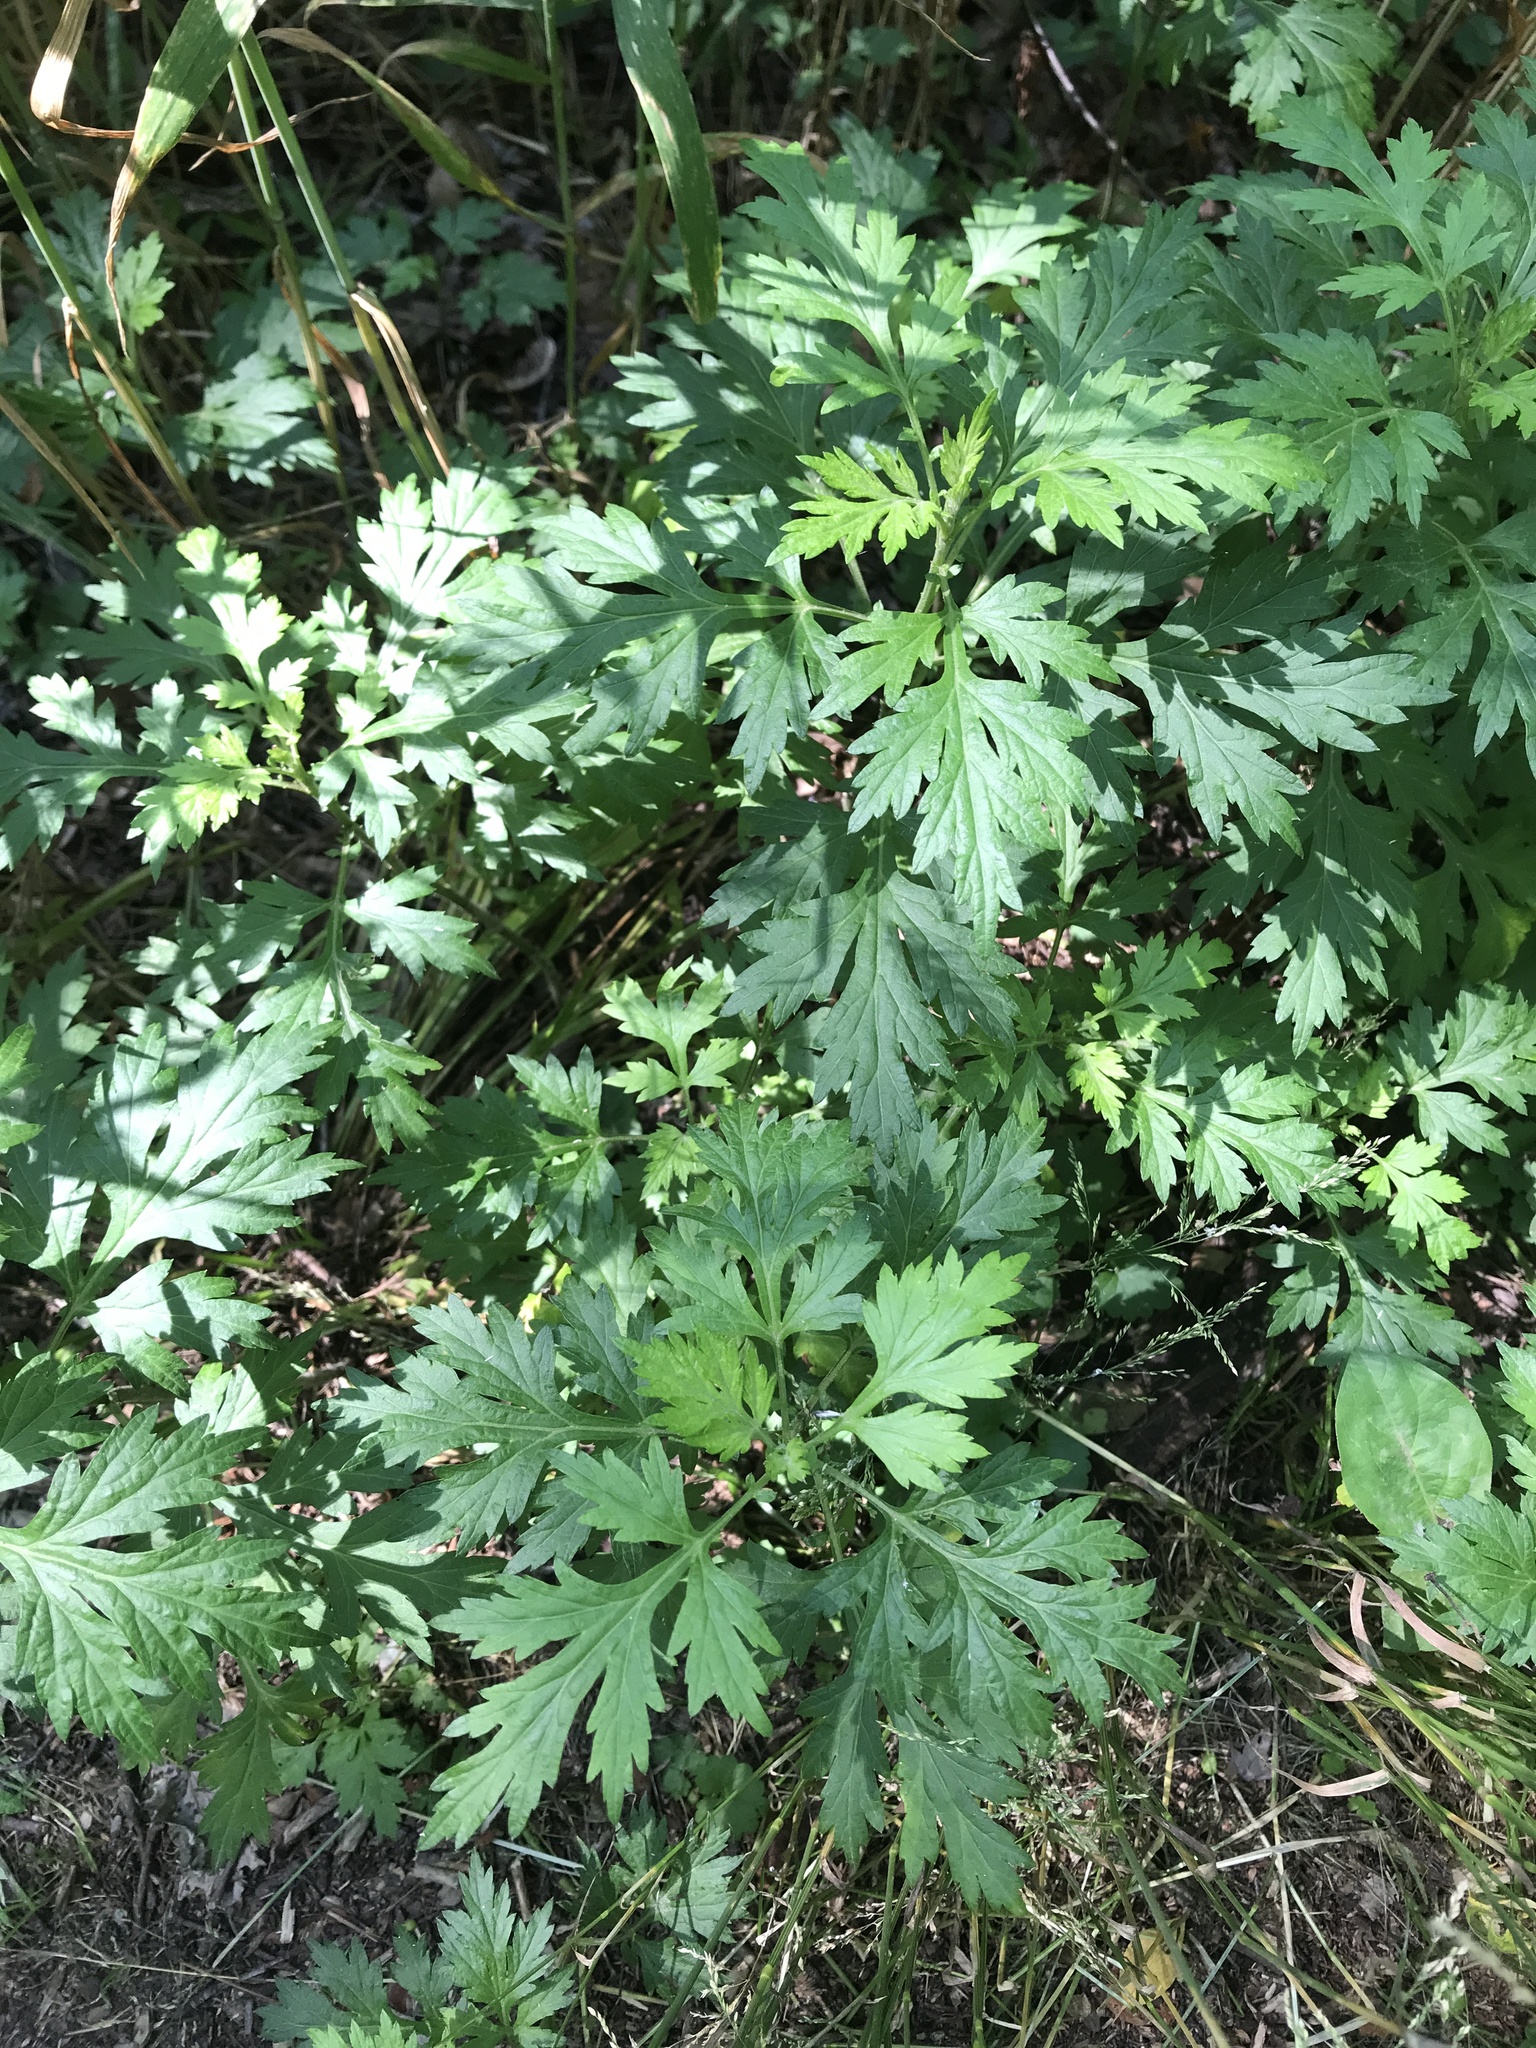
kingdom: Plantae
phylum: Tracheophyta
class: Magnoliopsida
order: Asterales
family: Asteraceae
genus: Artemisia
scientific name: Artemisia vulgaris
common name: Mugwort
